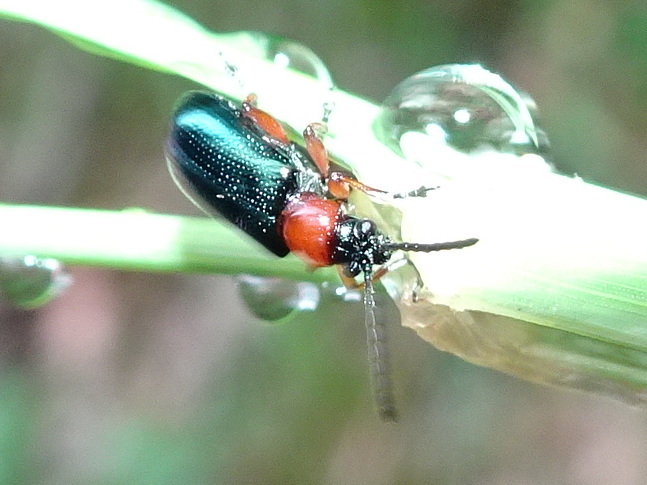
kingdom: Animalia
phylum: Arthropoda
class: Insecta
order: Coleoptera
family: Chrysomelidae
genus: Oulema
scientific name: Oulema melanopus
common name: Cereal leaf beetle
